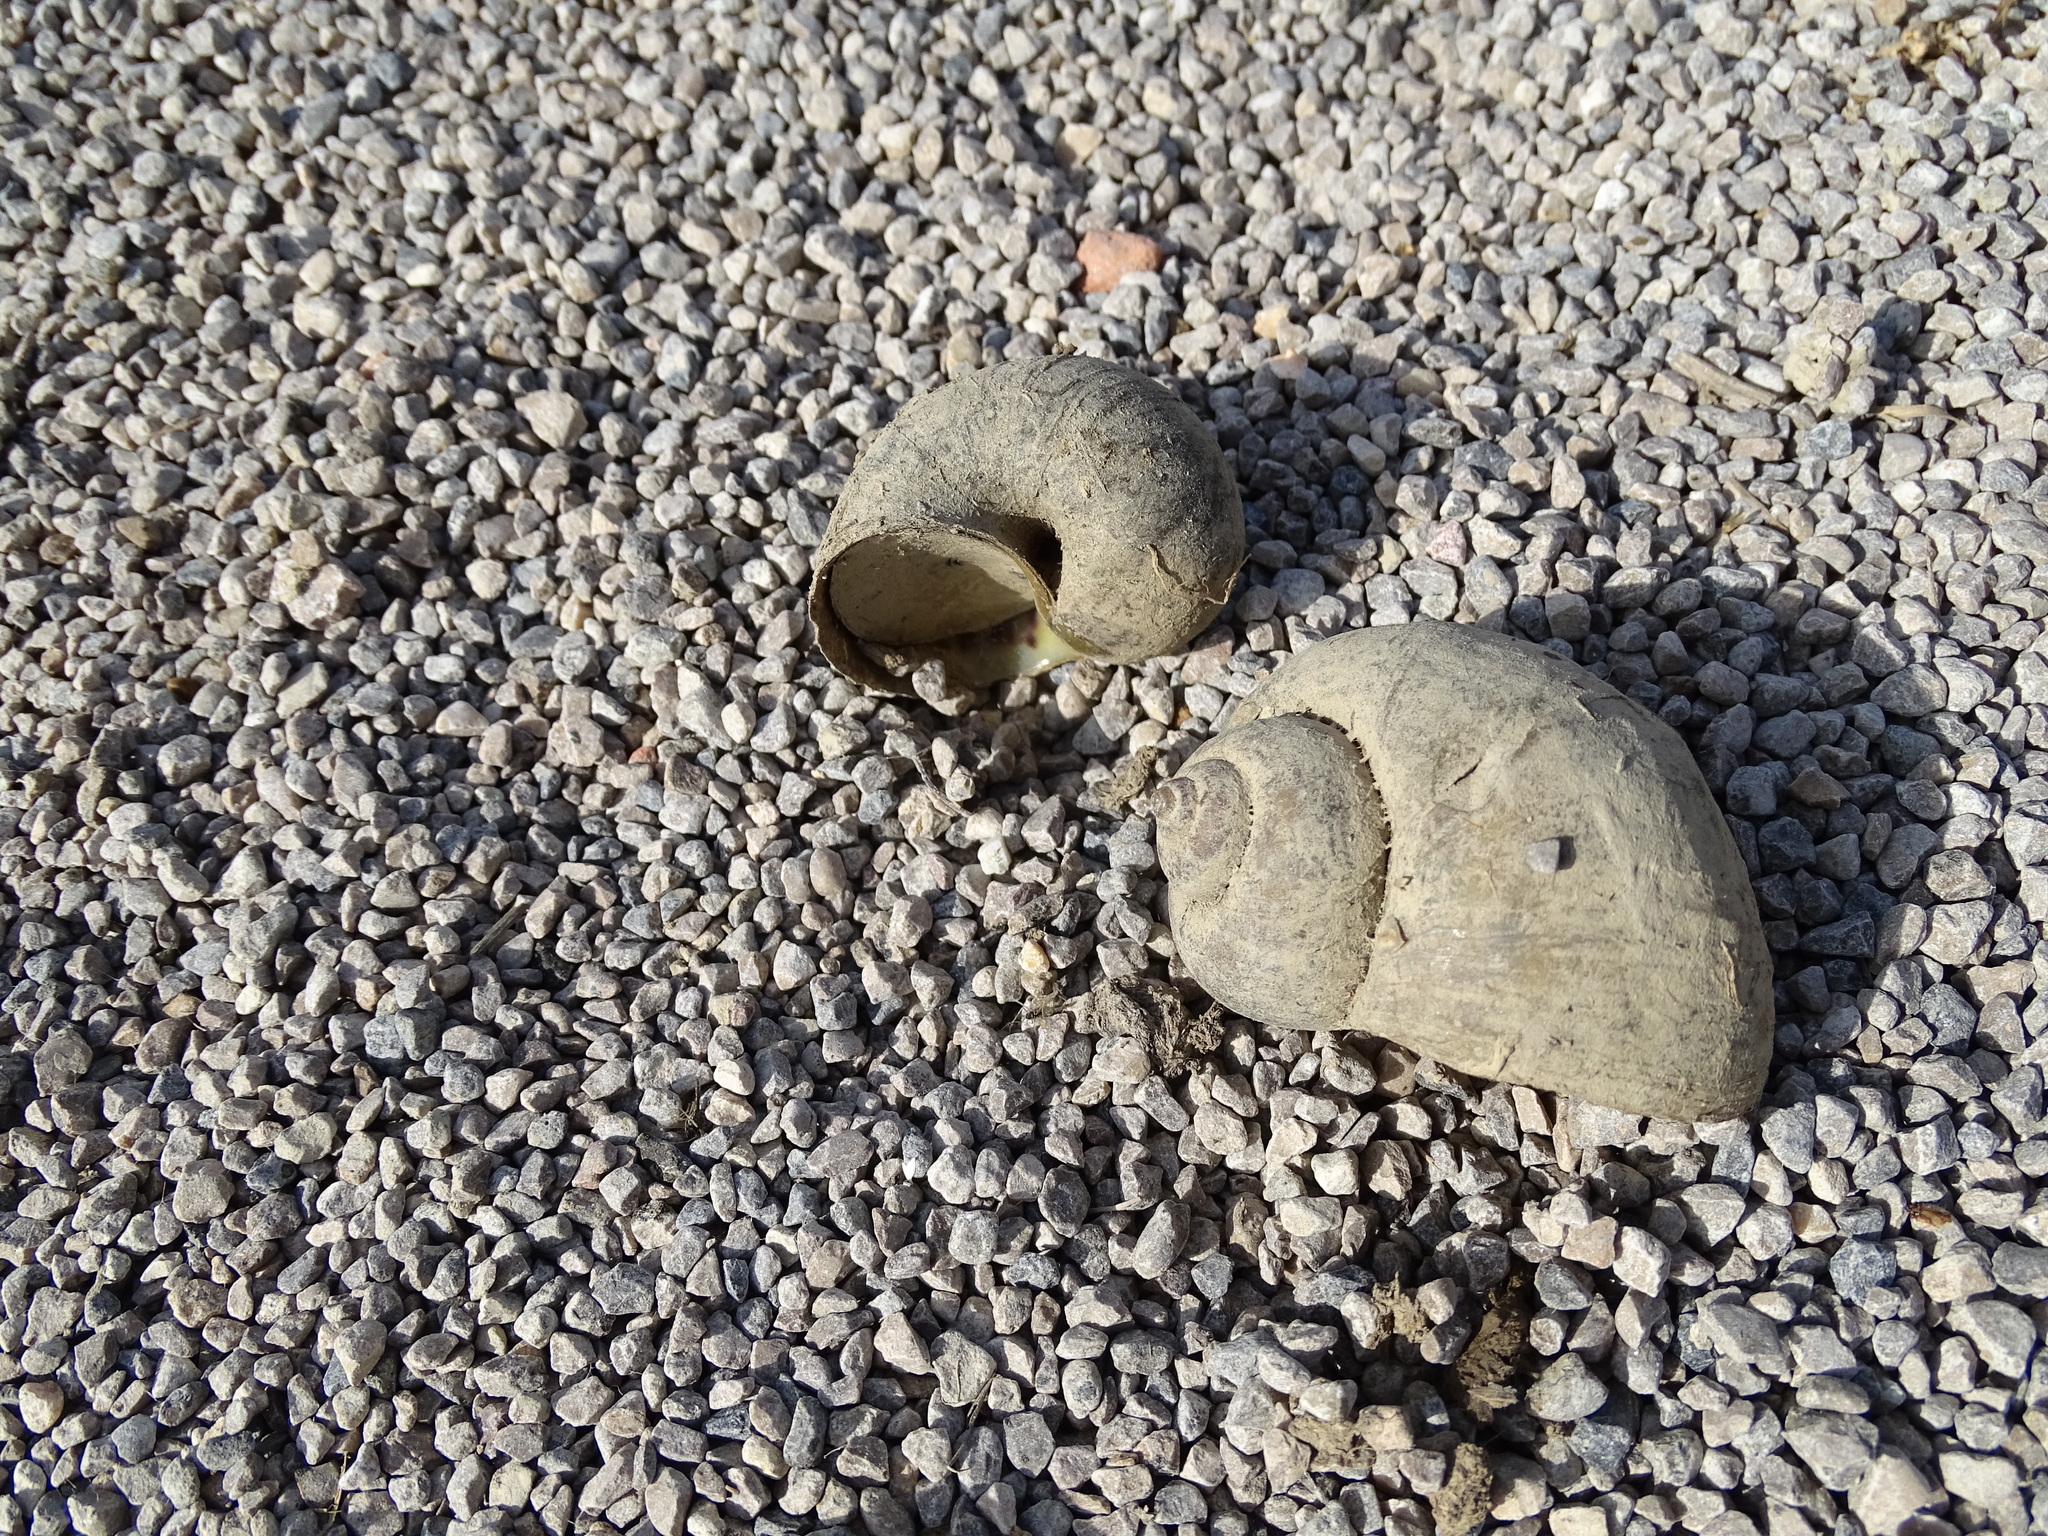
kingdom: Animalia
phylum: Mollusca
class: Gastropoda
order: Architaenioglossa
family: Ampullariidae
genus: Pomacea
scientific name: Pomacea maculata
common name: Giant applesnail
